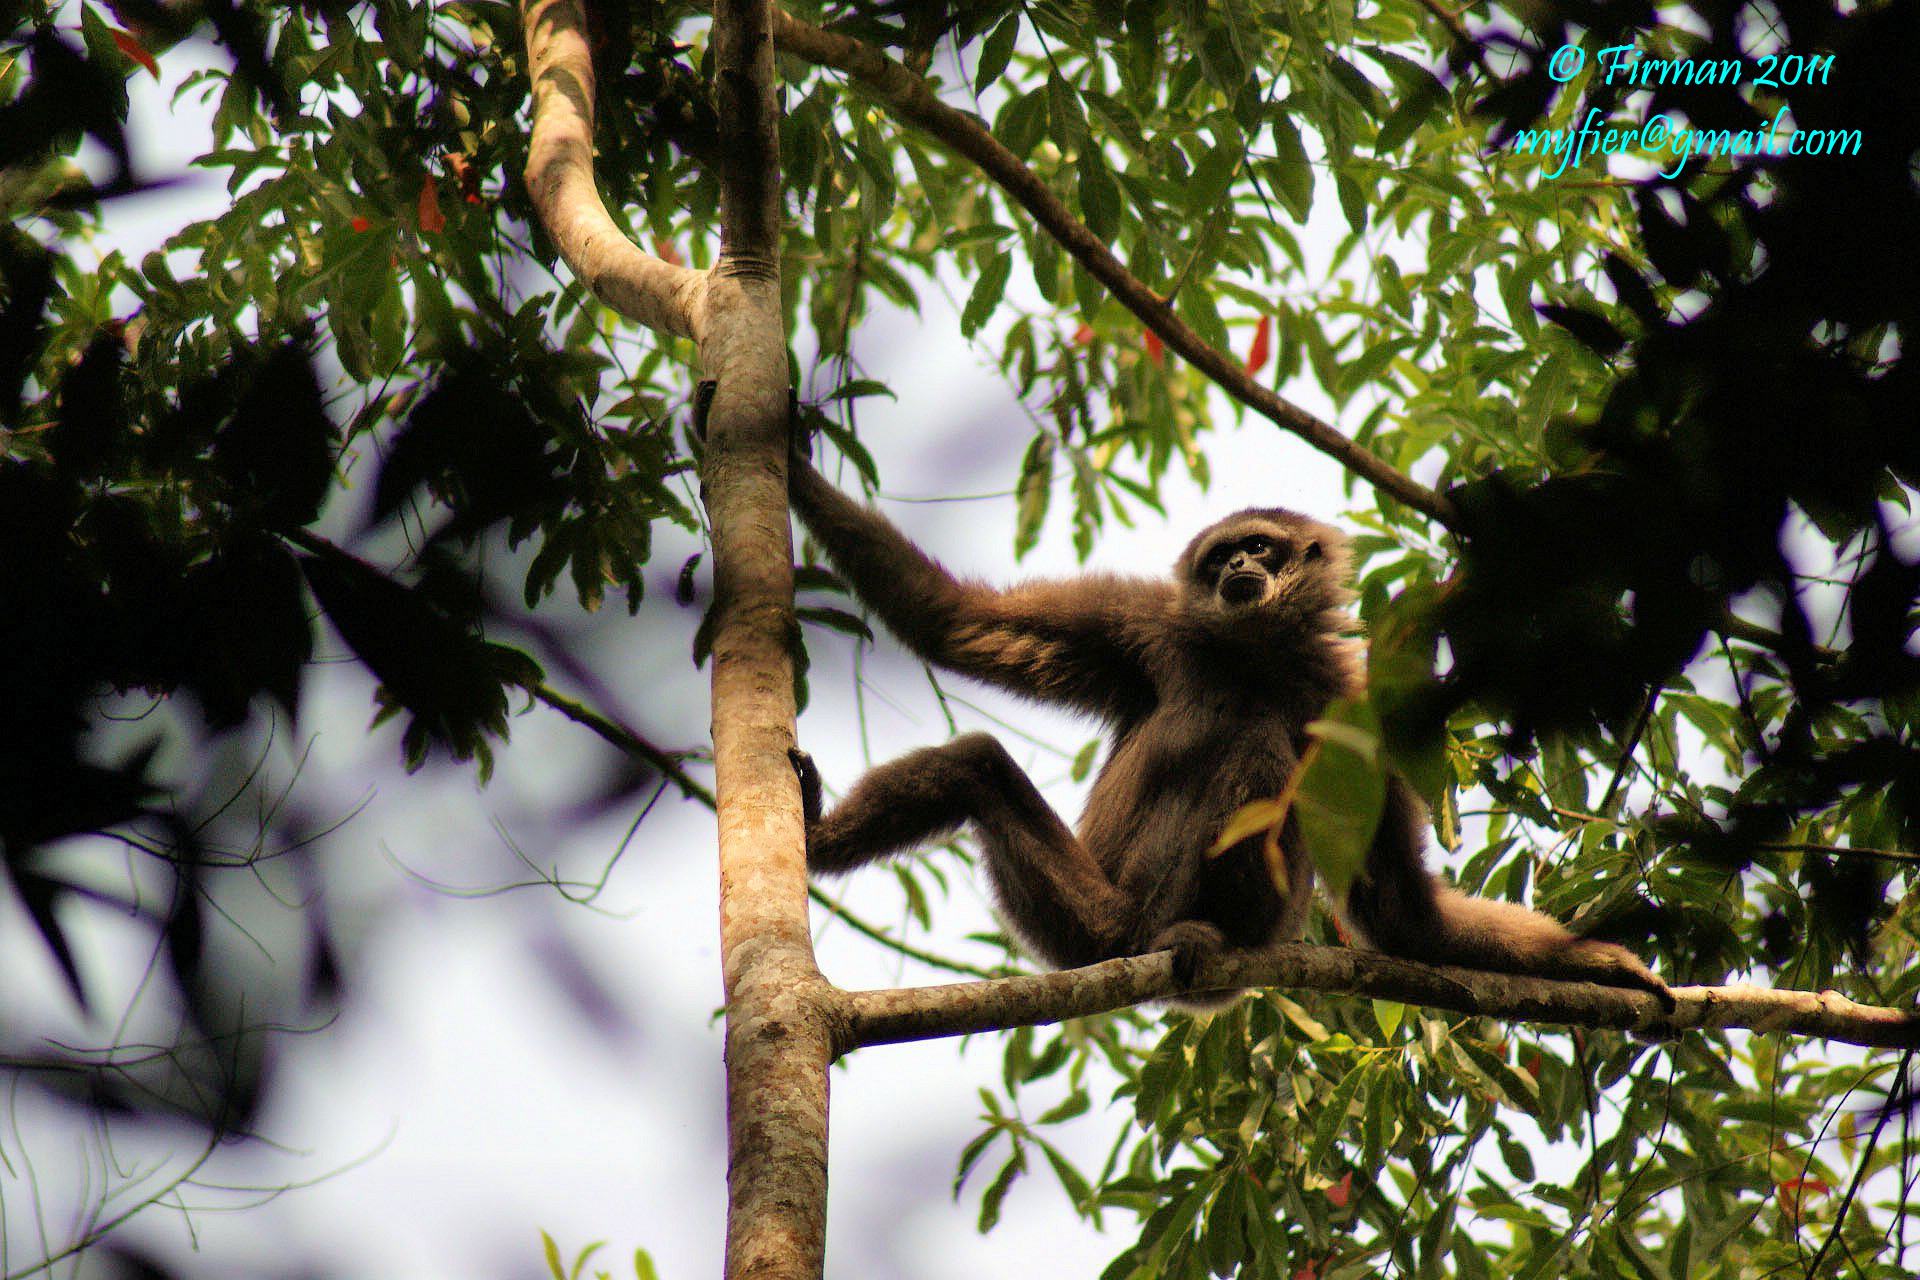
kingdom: Animalia
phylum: Chordata
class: Mammalia
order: Primates
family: Hylobatidae
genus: Hylobates
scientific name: Hylobates moloch
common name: Silvery javan gibbon
